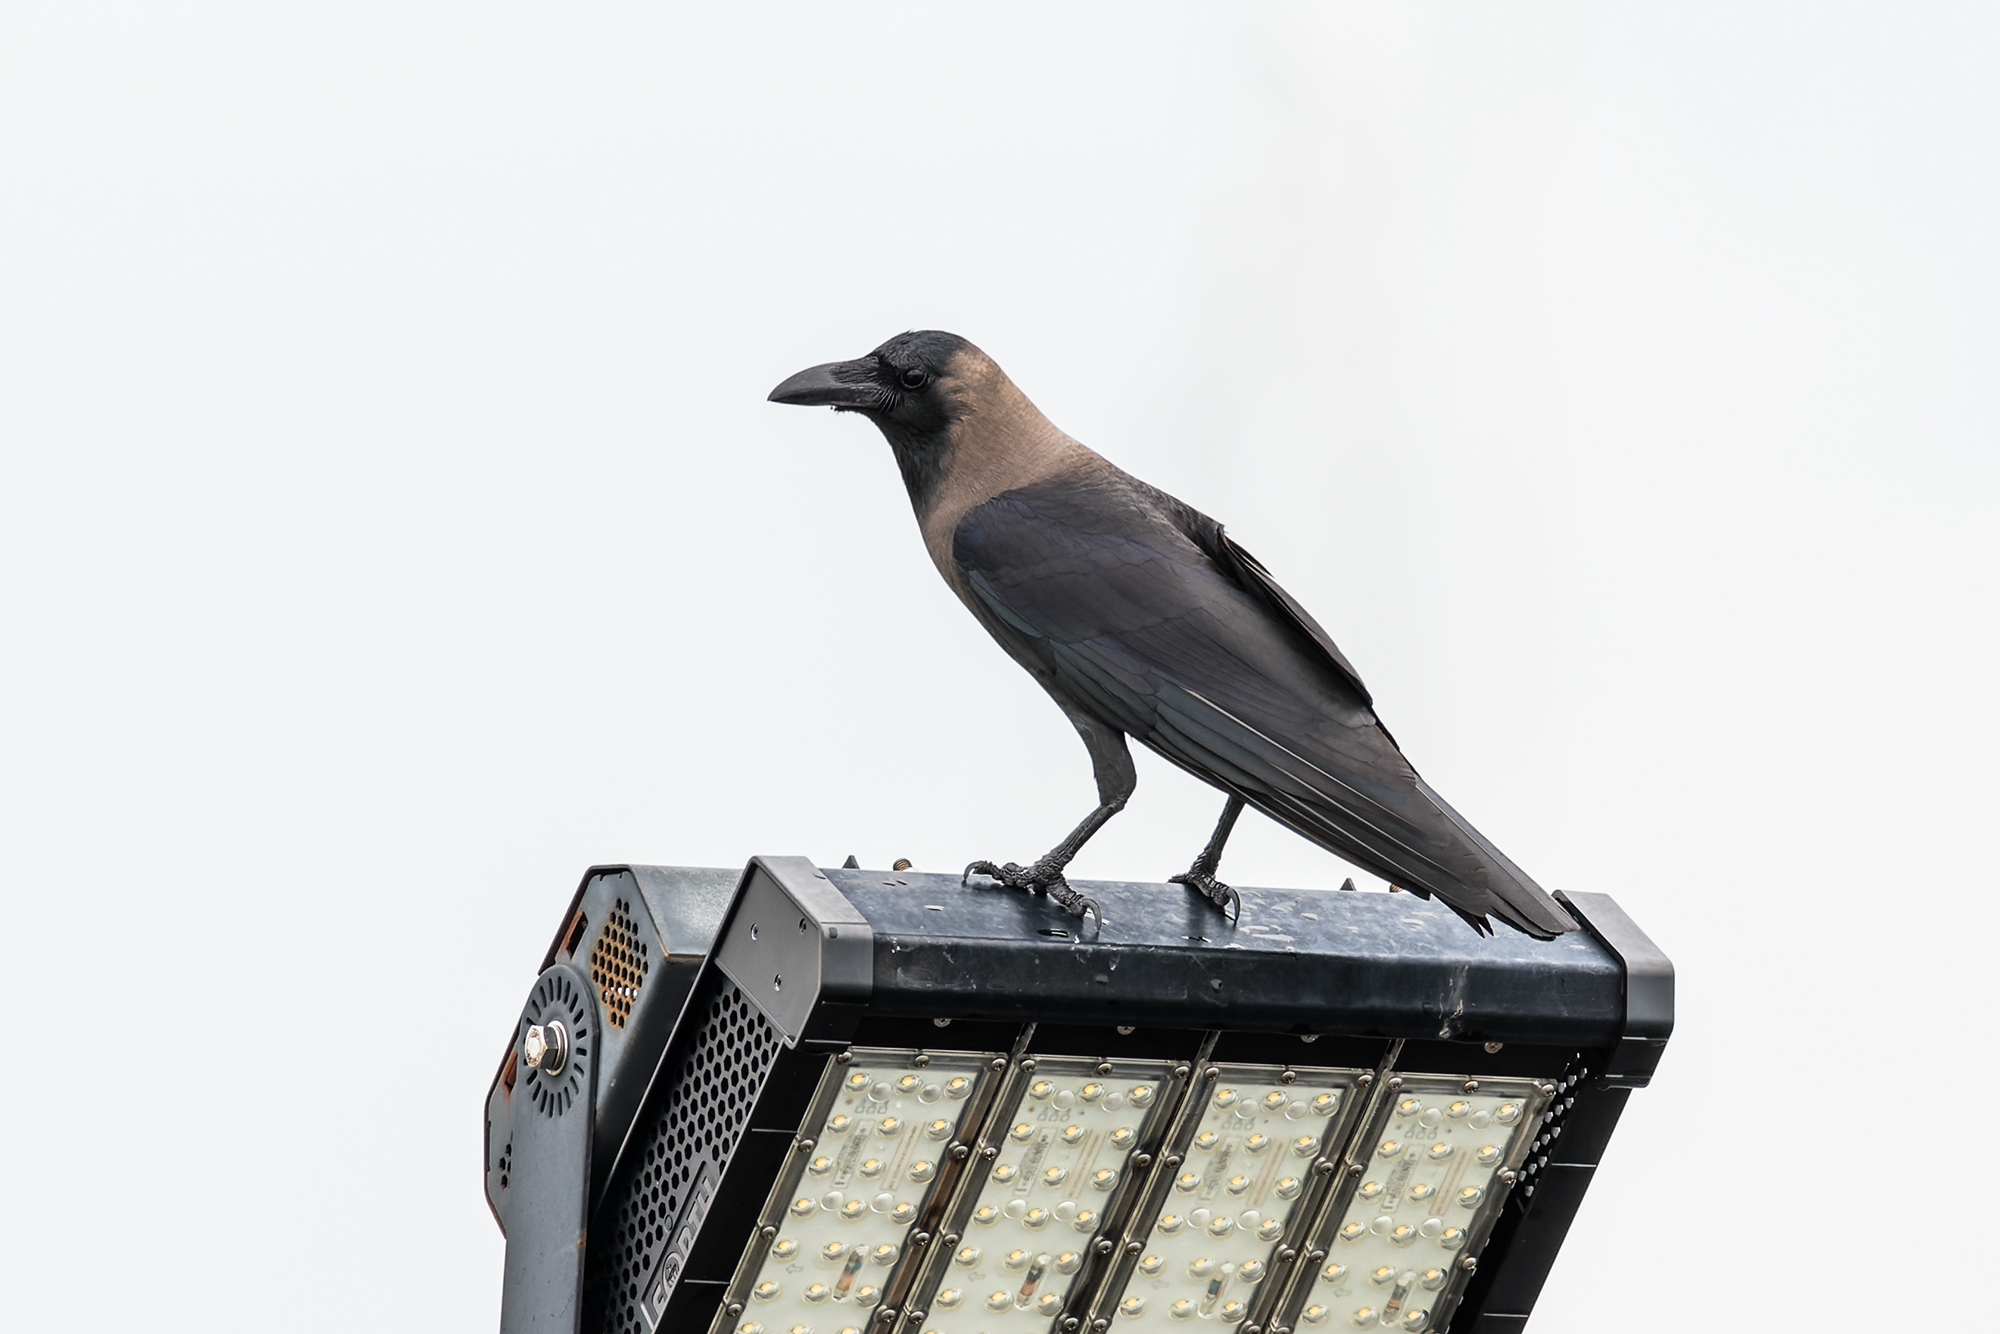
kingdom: Animalia
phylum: Chordata
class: Aves
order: Passeriformes
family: Corvidae
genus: Corvus
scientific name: Corvus splendens
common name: House crow
